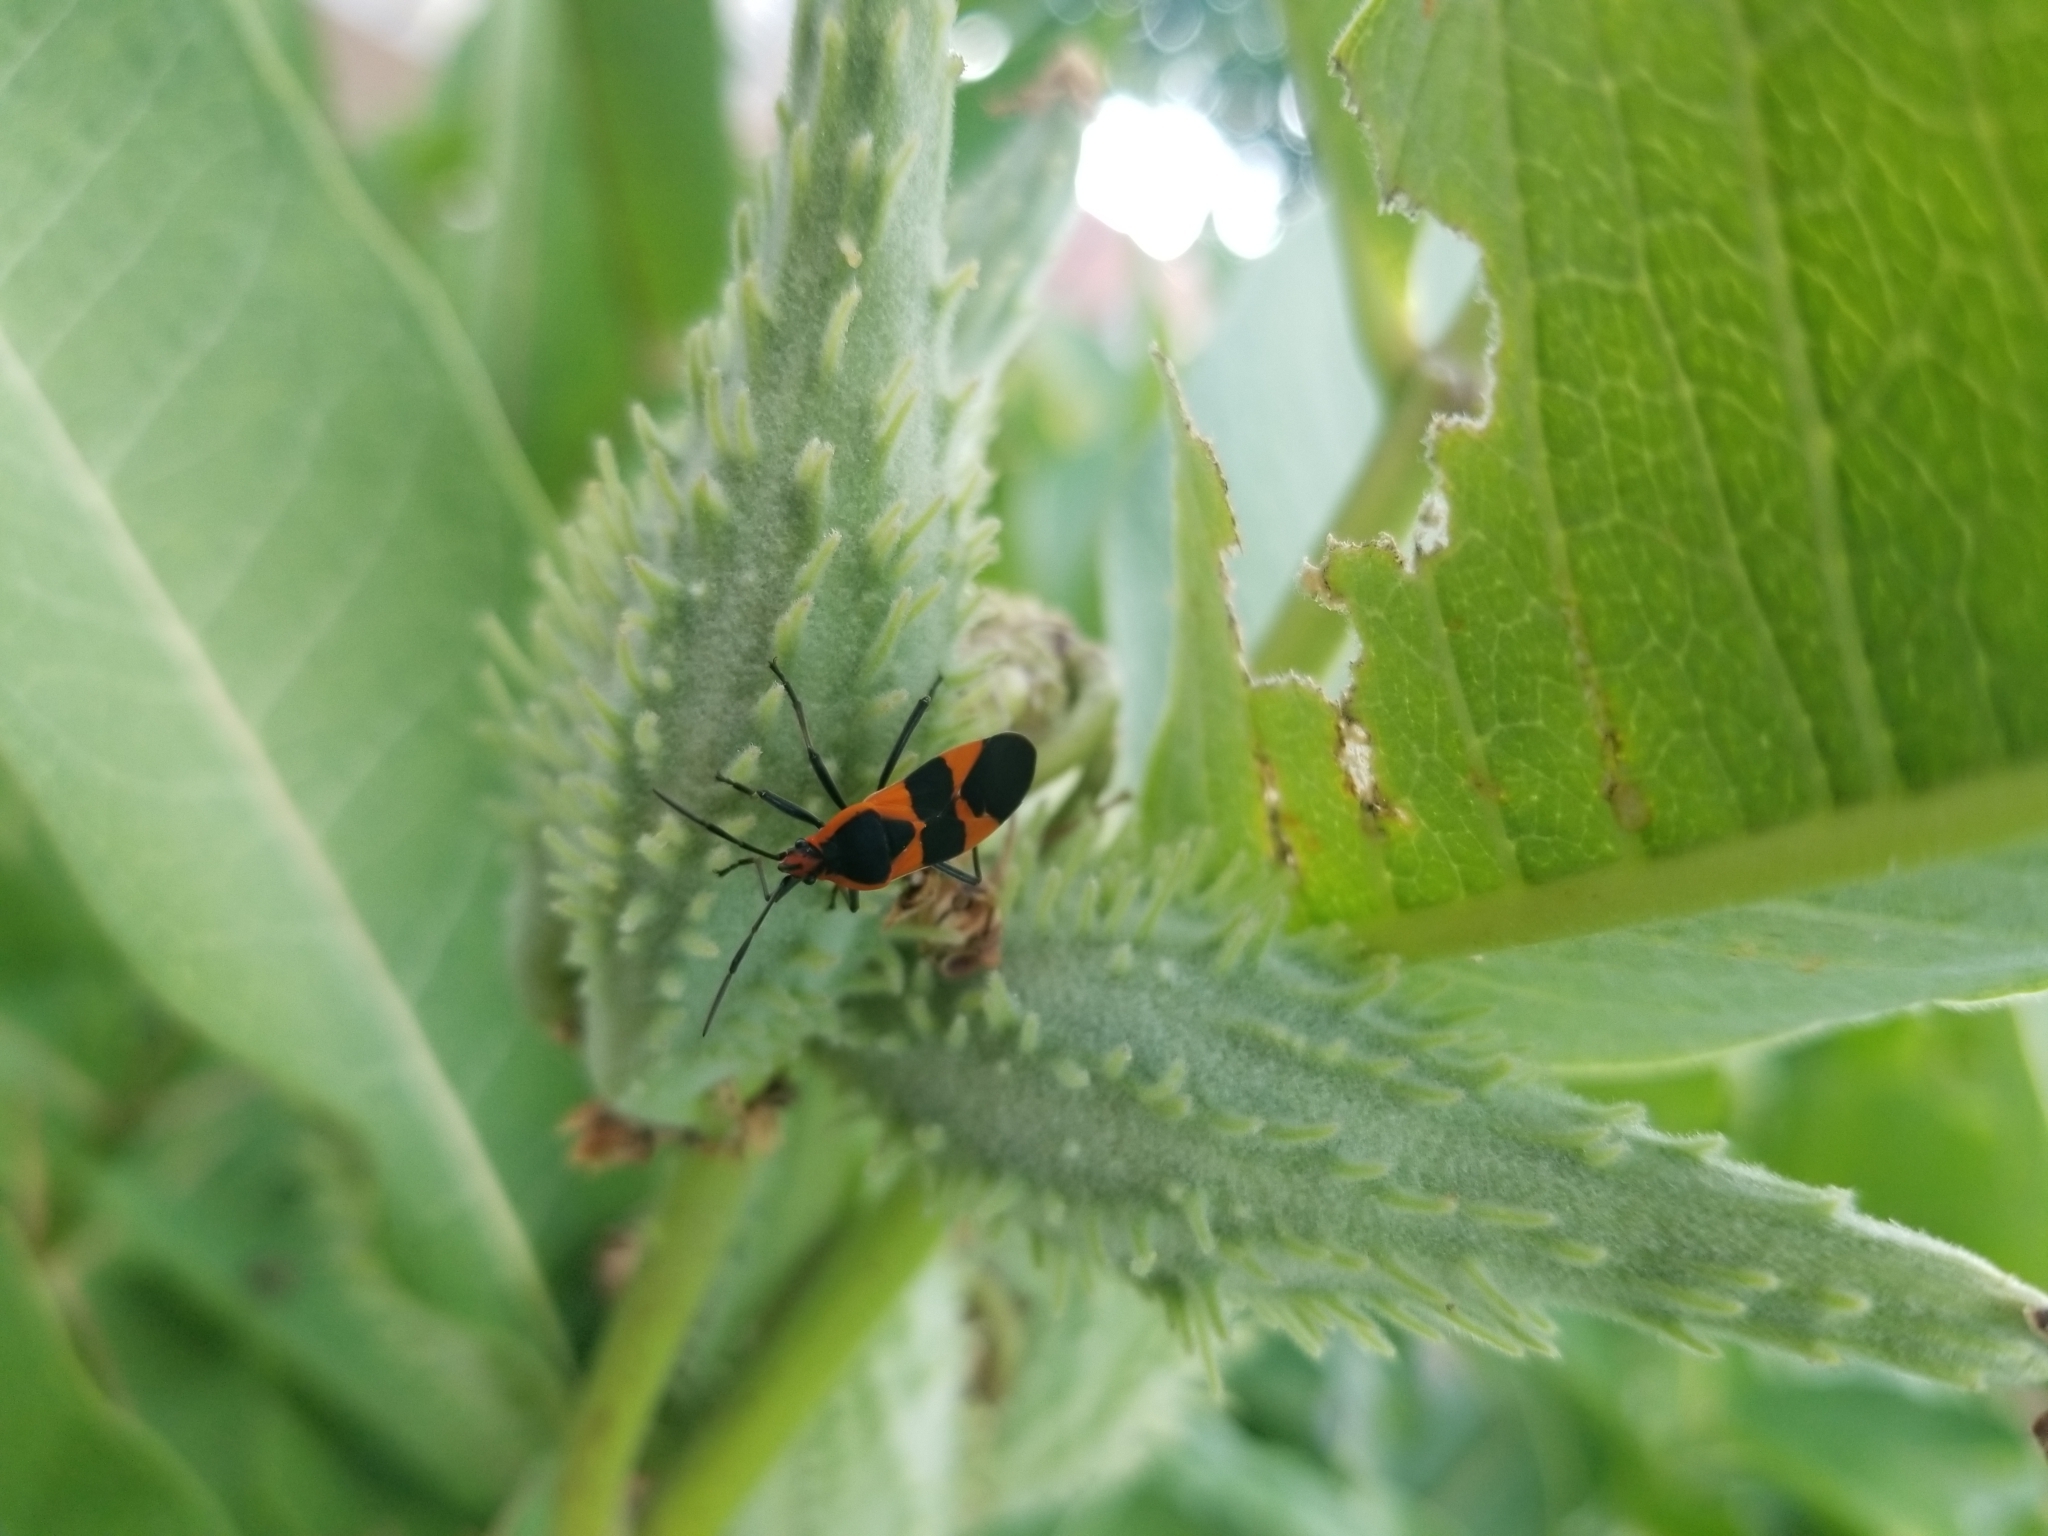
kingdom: Animalia
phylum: Arthropoda
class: Insecta
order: Hemiptera
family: Lygaeidae
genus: Oncopeltus
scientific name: Oncopeltus fasciatus
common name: Large milkweed bug
